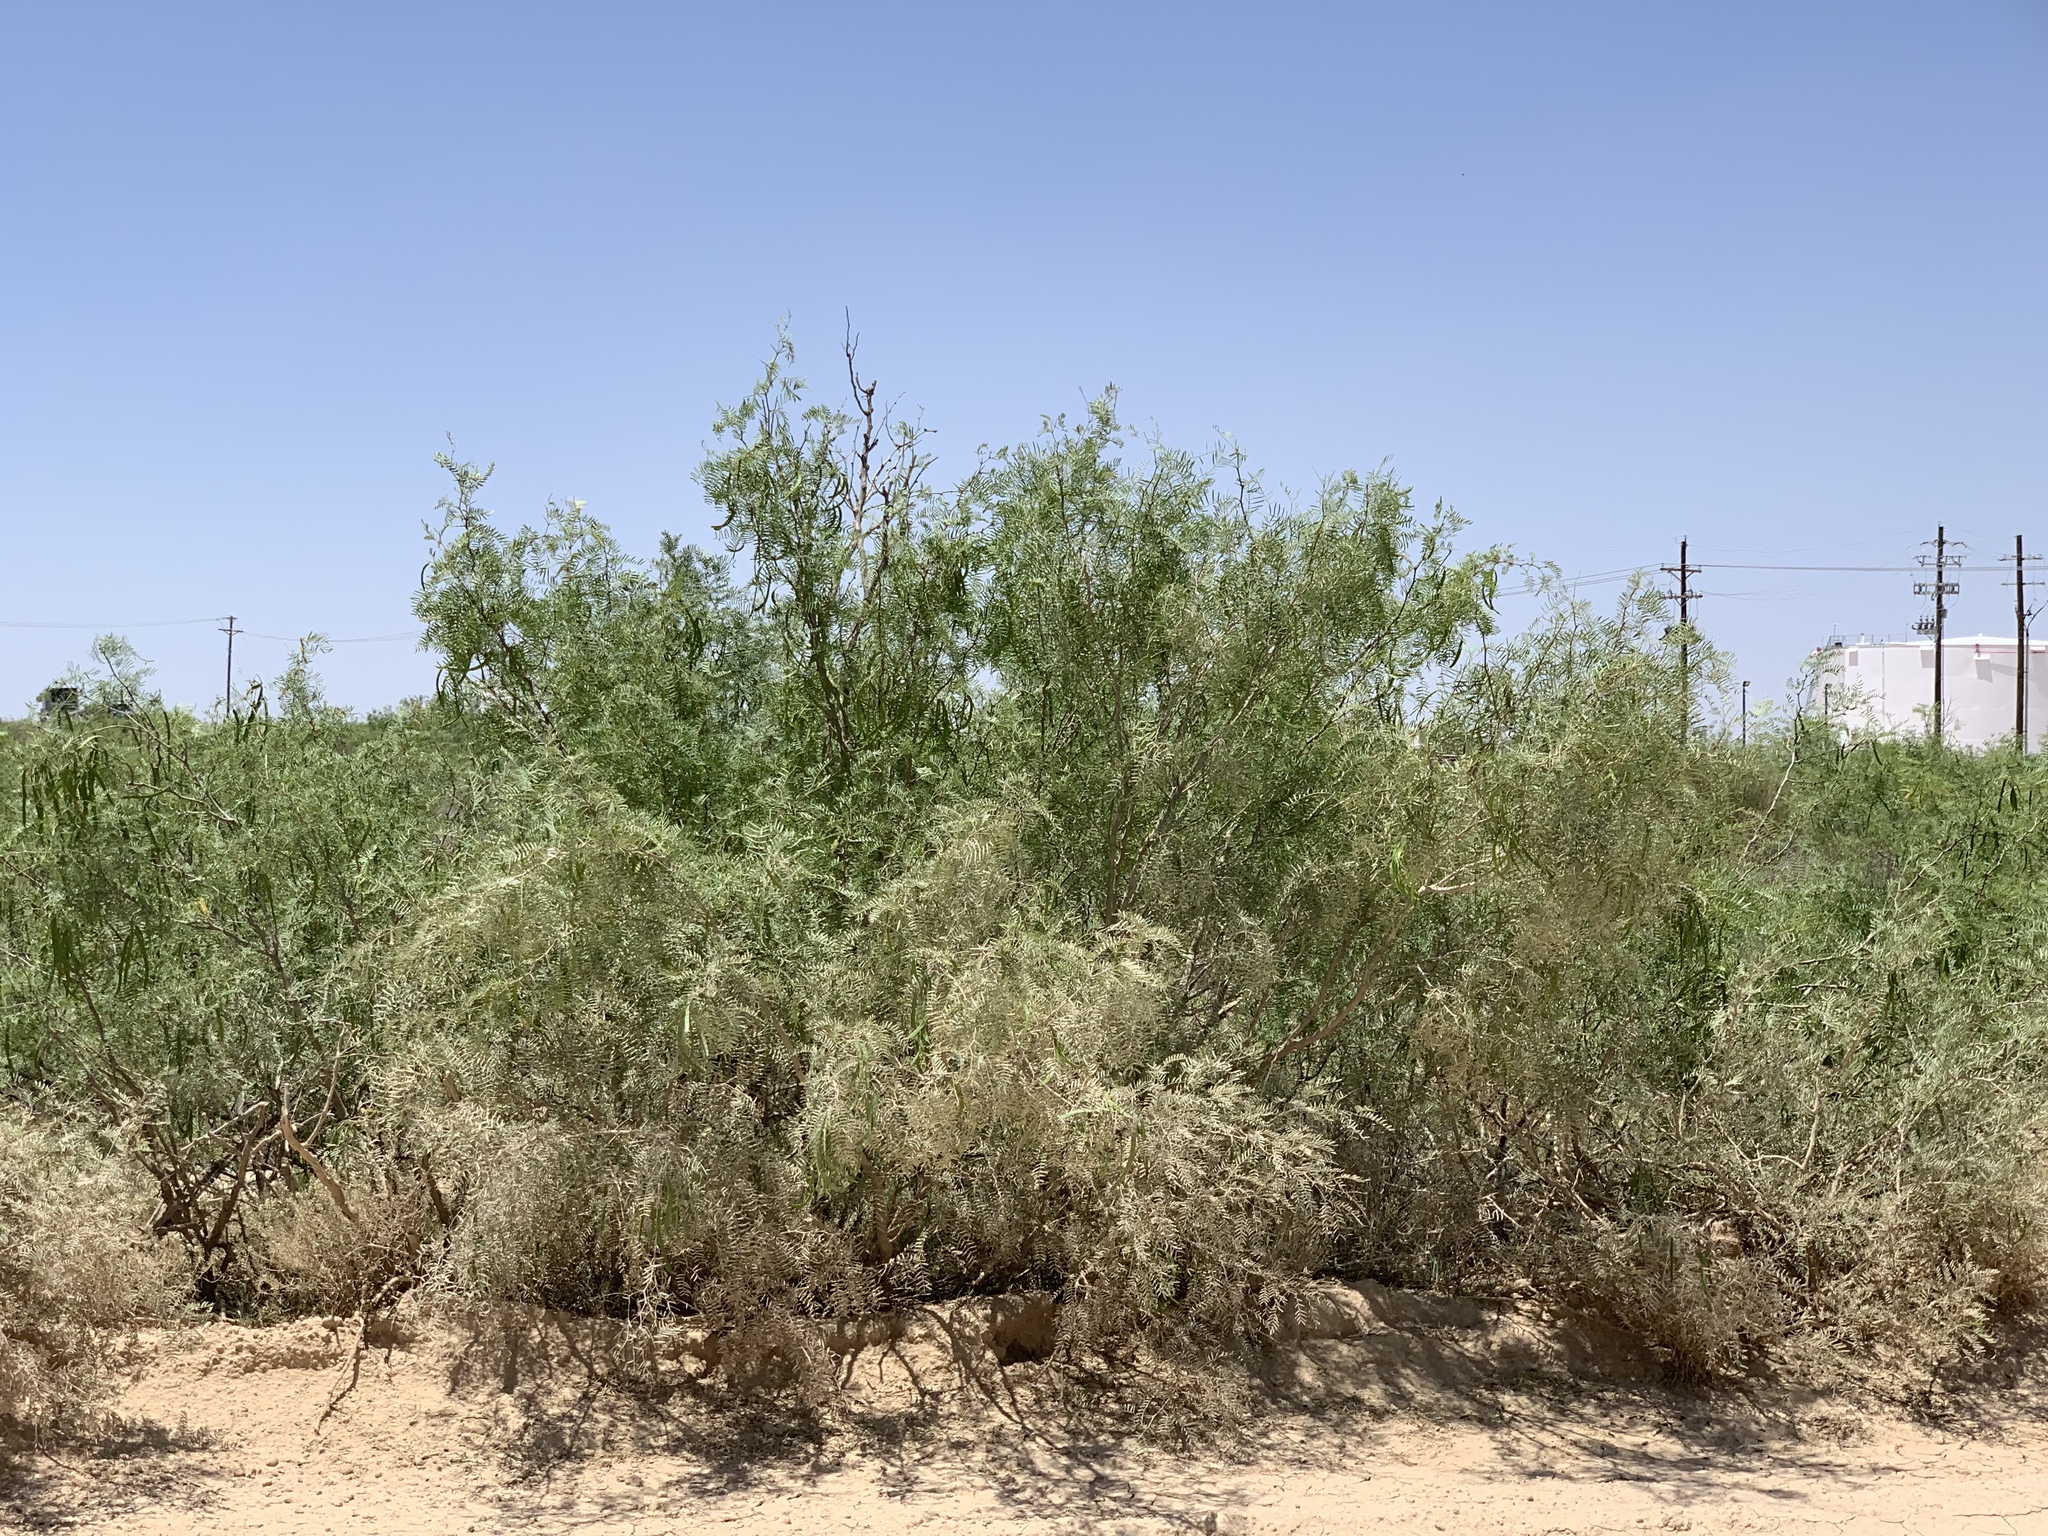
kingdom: Plantae
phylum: Tracheophyta
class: Magnoliopsida
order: Fabales
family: Fabaceae
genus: Prosopis
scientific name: Prosopis glandulosa
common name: Honey mesquite
